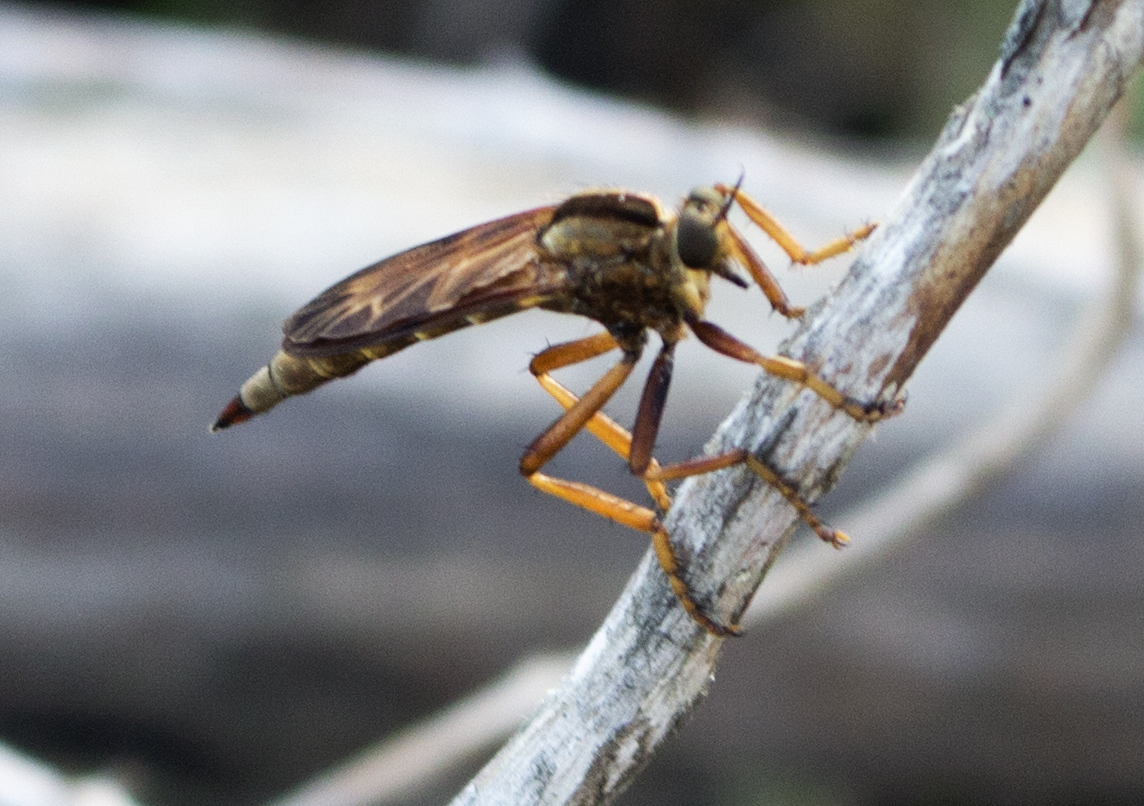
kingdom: Animalia
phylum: Arthropoda
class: Insecta
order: Diptera
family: Asilidae
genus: Asilus
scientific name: Asilus sericeus
